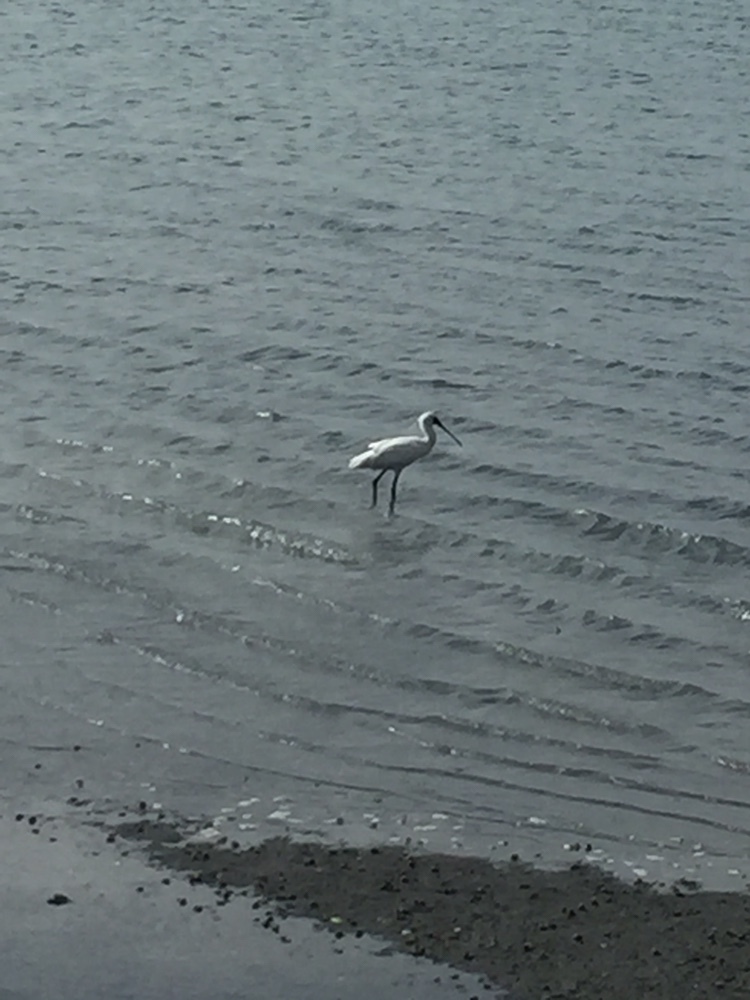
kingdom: Animalia
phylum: Chordata
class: Aves
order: Pelecaniformes
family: Threskiornithidae
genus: Platalea
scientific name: Platalea regia
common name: Royal spoonbill
